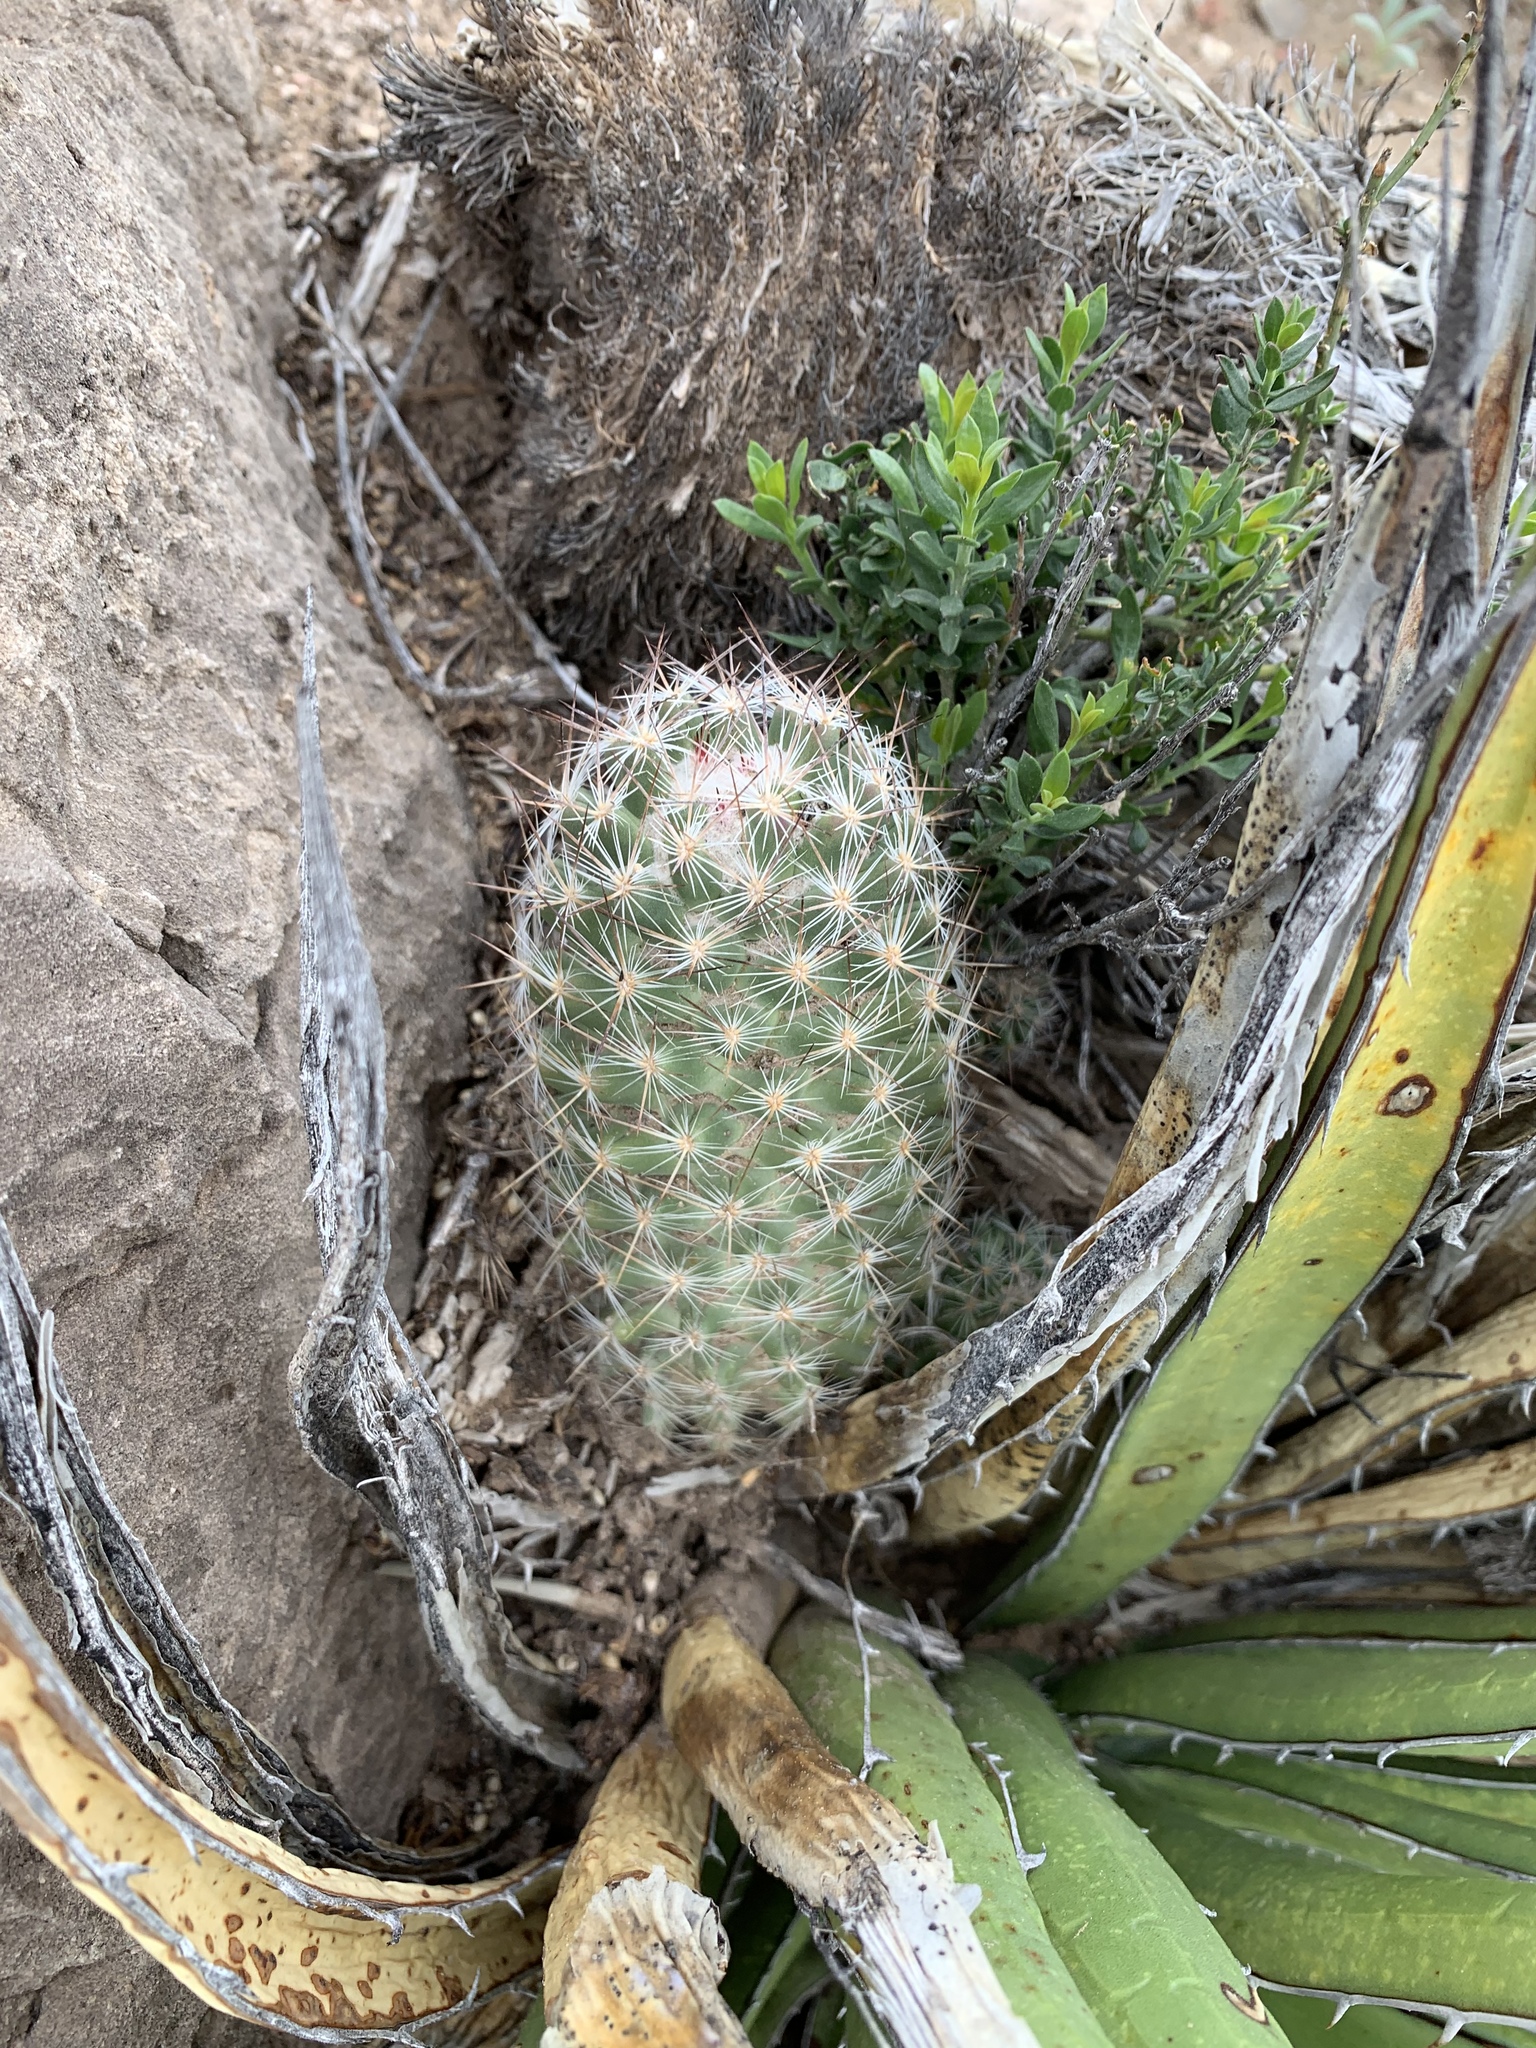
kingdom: Plantae
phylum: Tracheophyta
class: Magnoliopsida
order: Caryophyllales
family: Cactaceae
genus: Pelecyphora
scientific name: Pelecyphora tuberculosa
